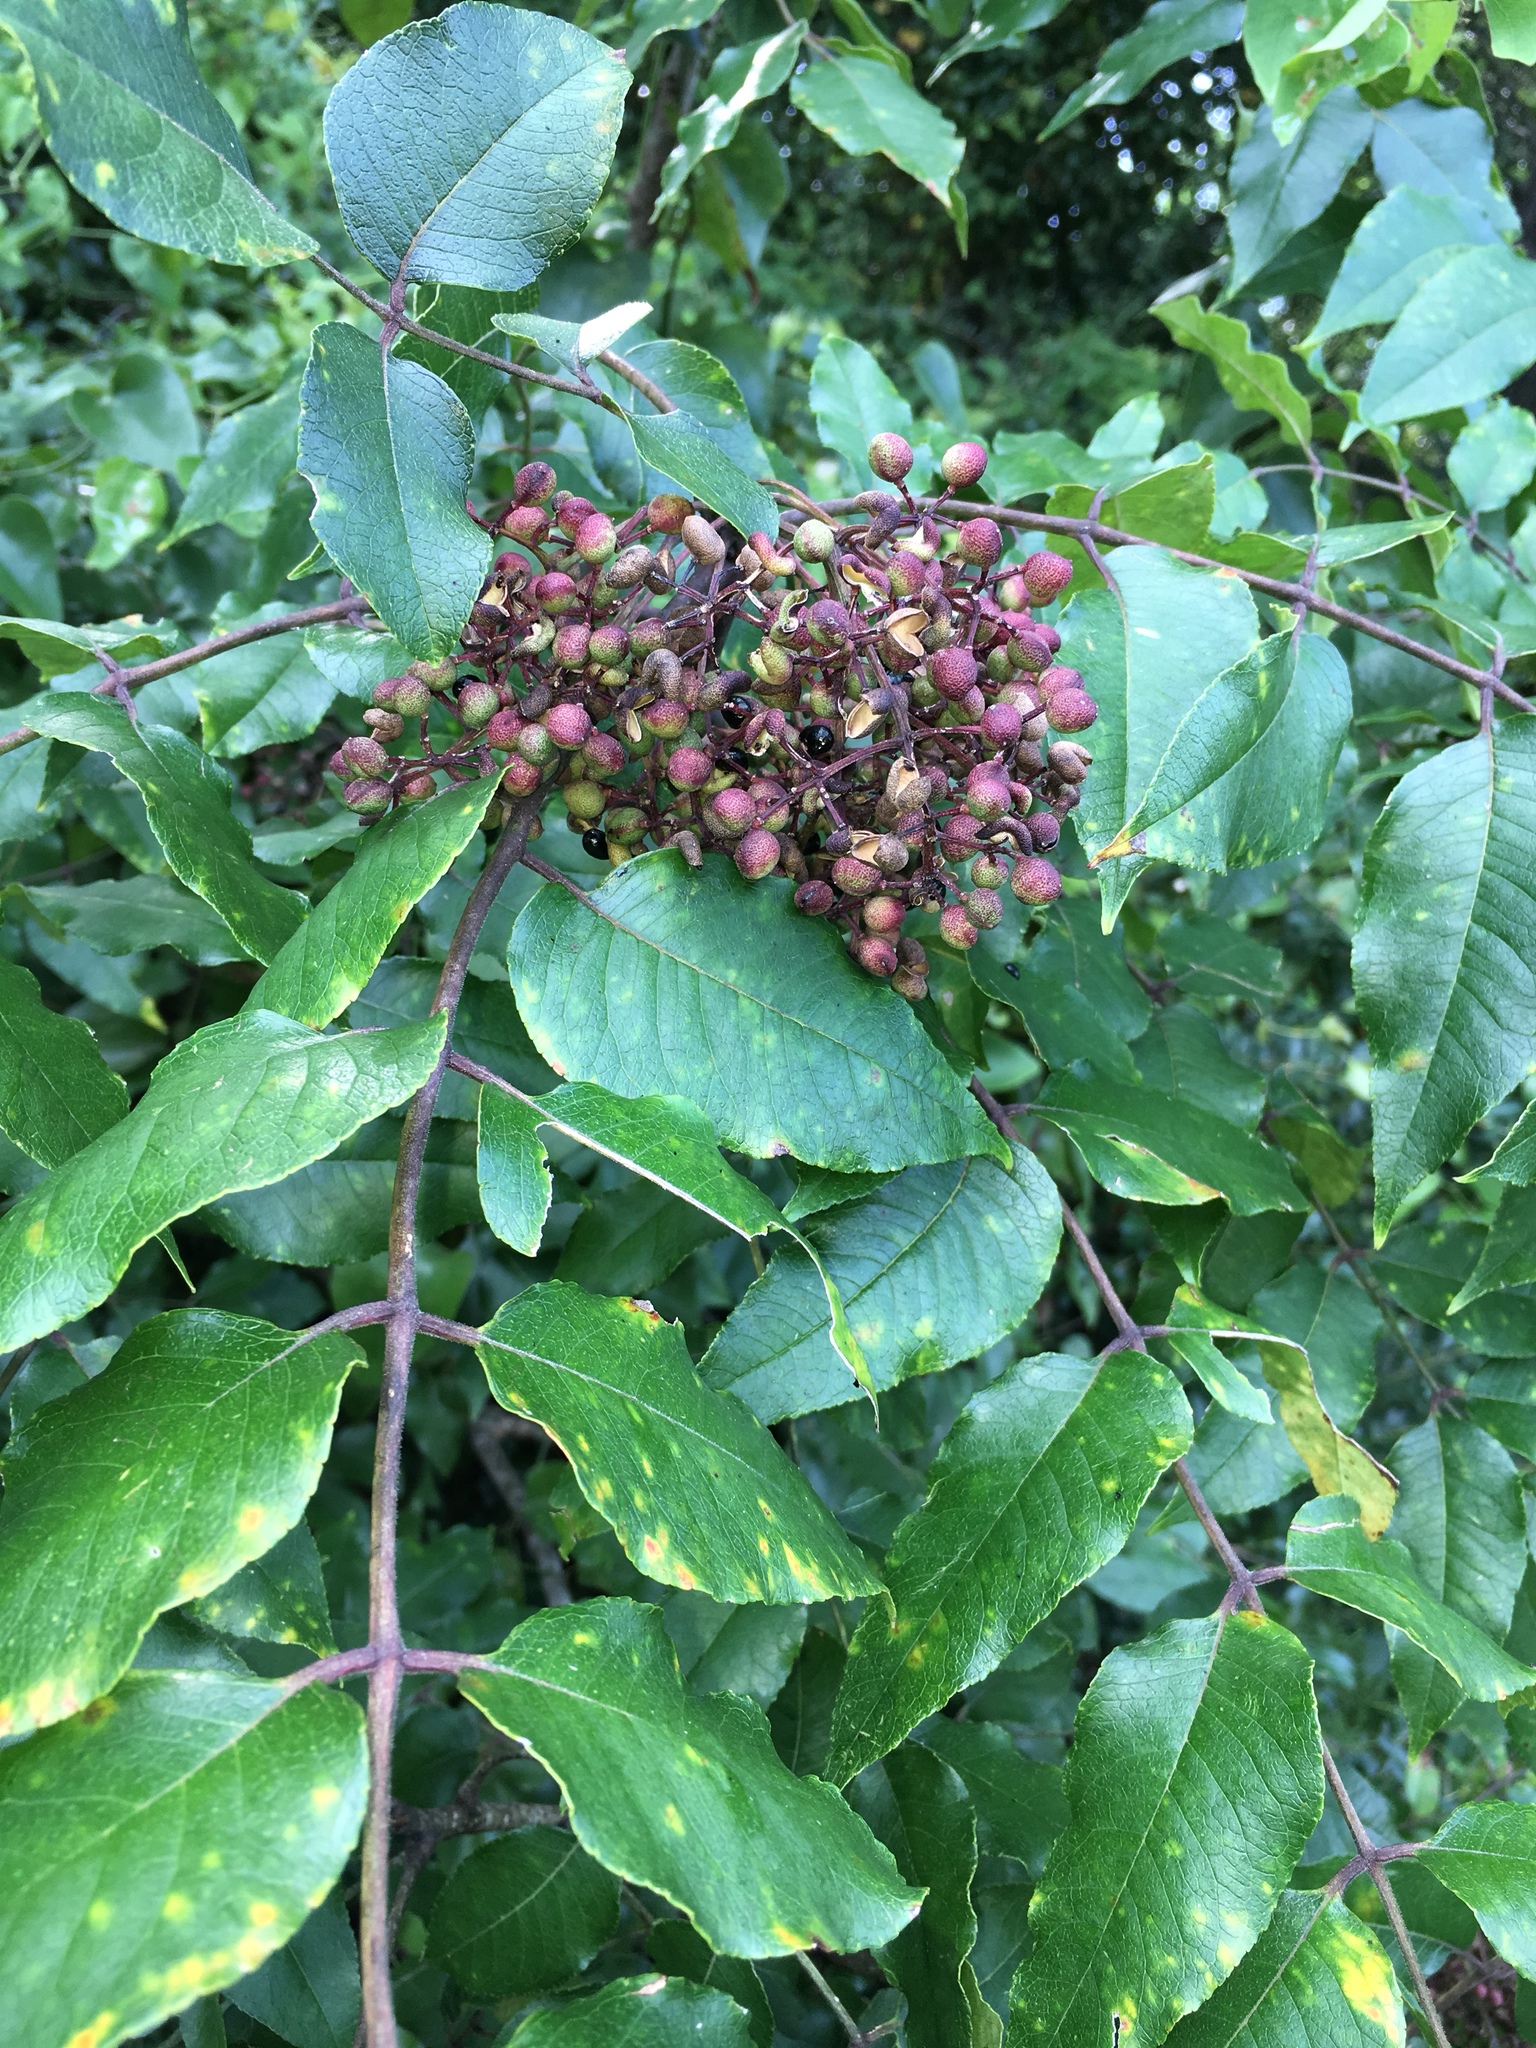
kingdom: Plantae
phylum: Tracheophyta
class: Magnoliopsida
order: Sapindales
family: Rutaceae
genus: Zanthoxylum
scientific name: Zanthoxylum clava-herculis
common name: Hercules'-club
